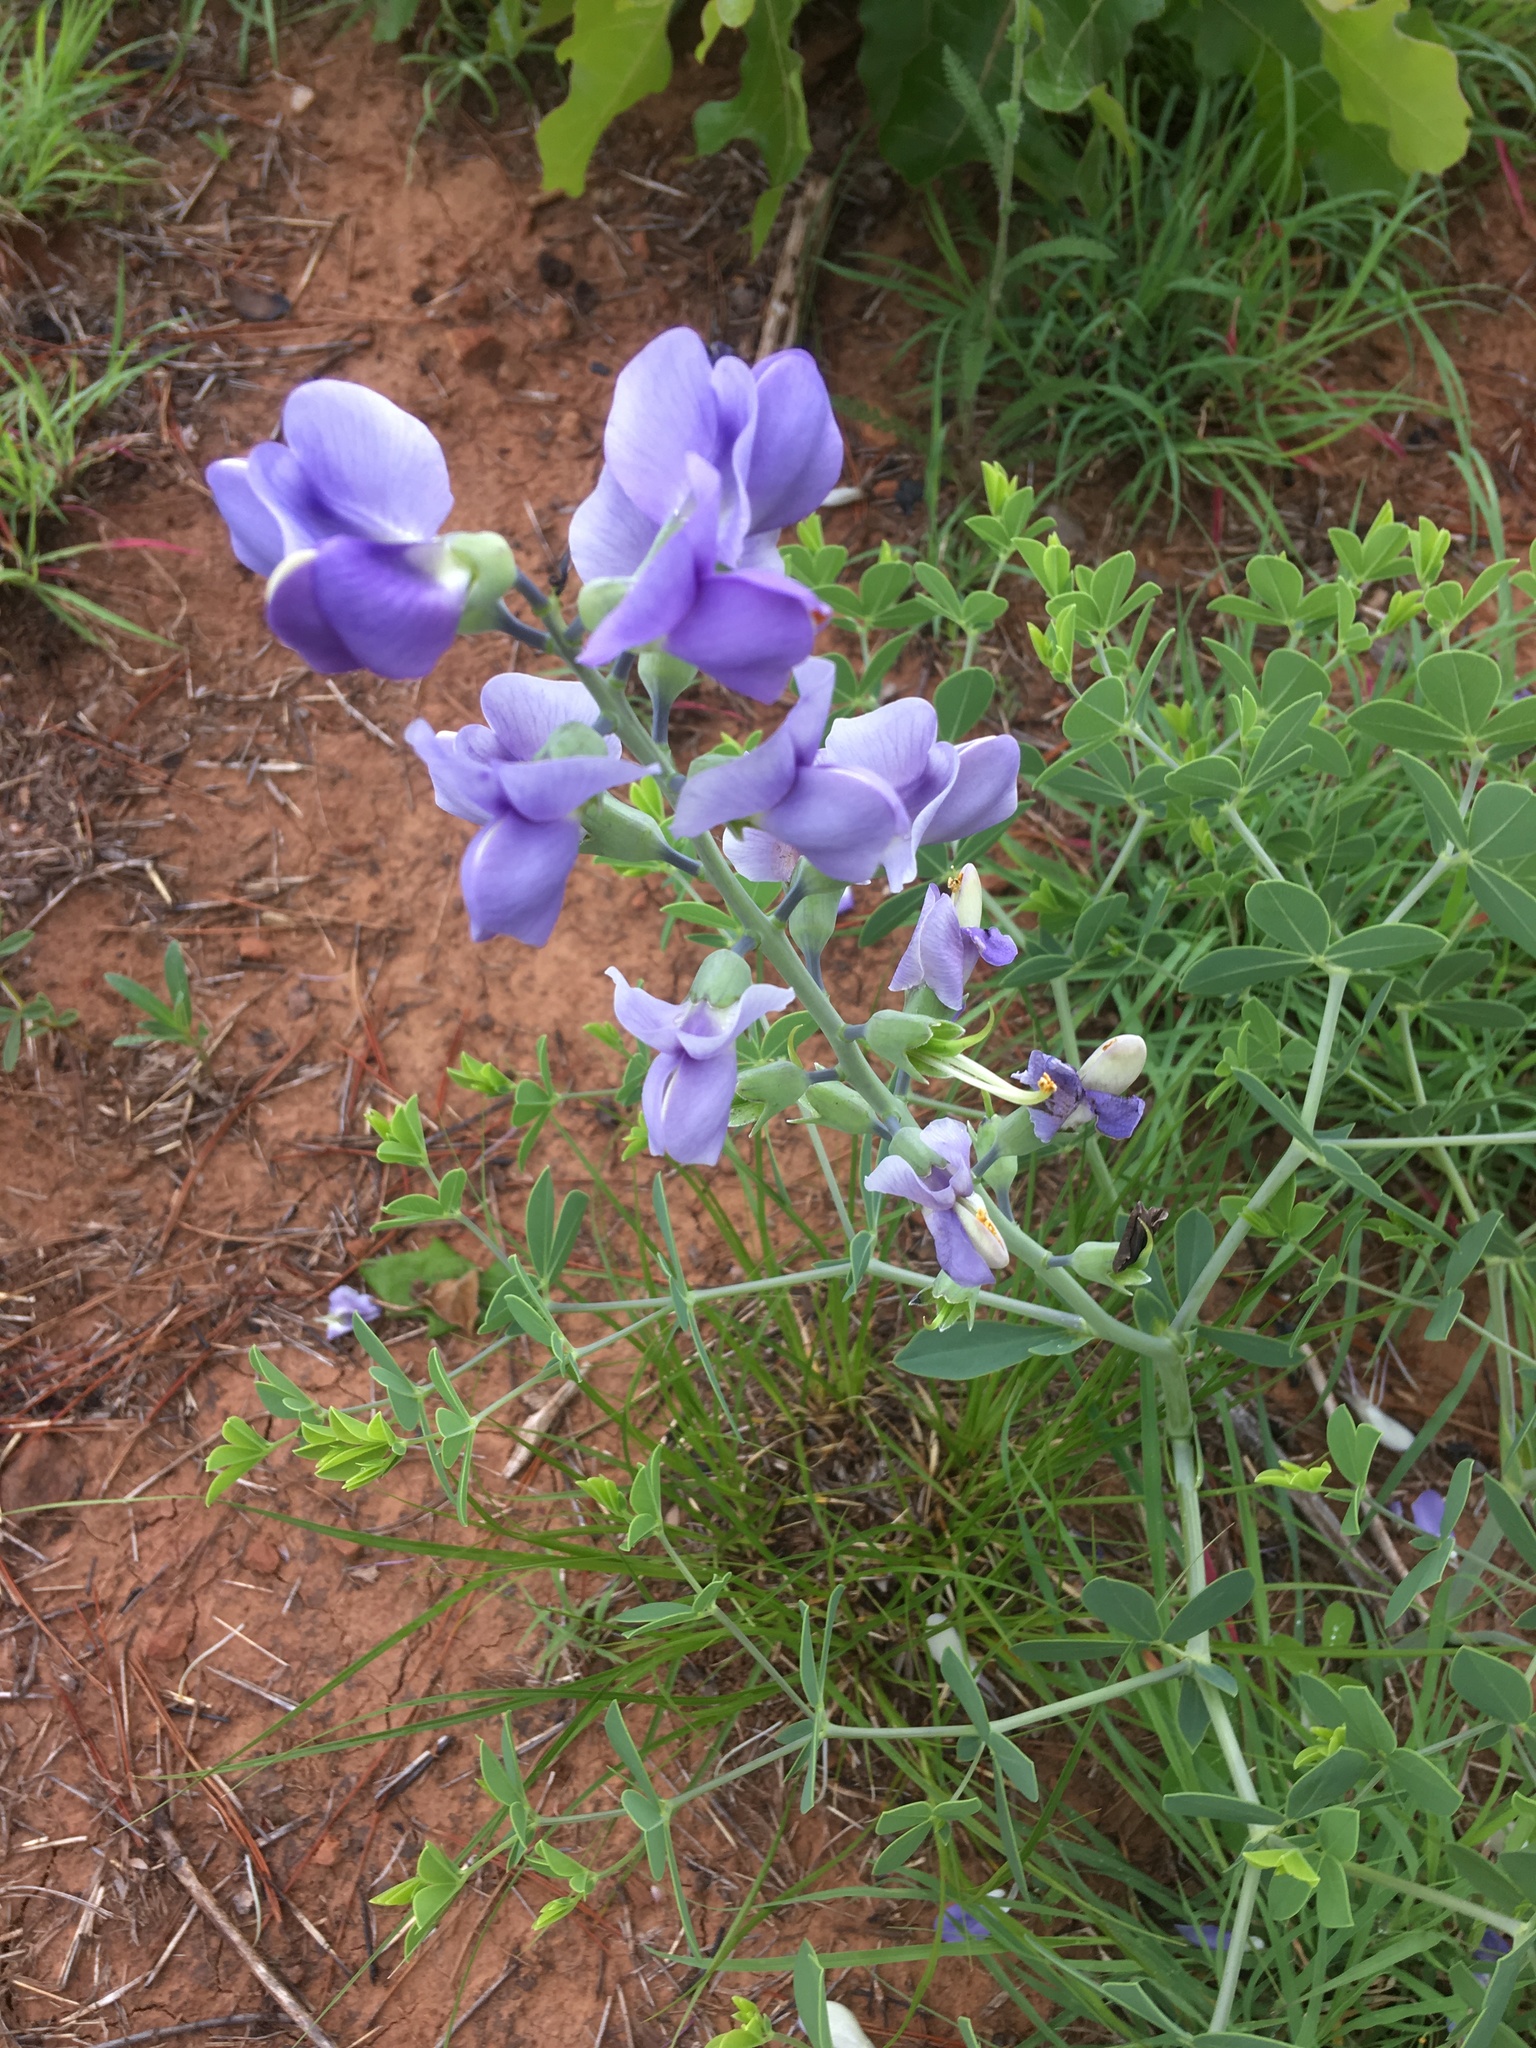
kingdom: Plantae
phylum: Tracheophyta
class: Magnoliopsida
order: Fabales
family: Fabaceae
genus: Baptisia
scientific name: Baptisia australis
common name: Blue false indigo
